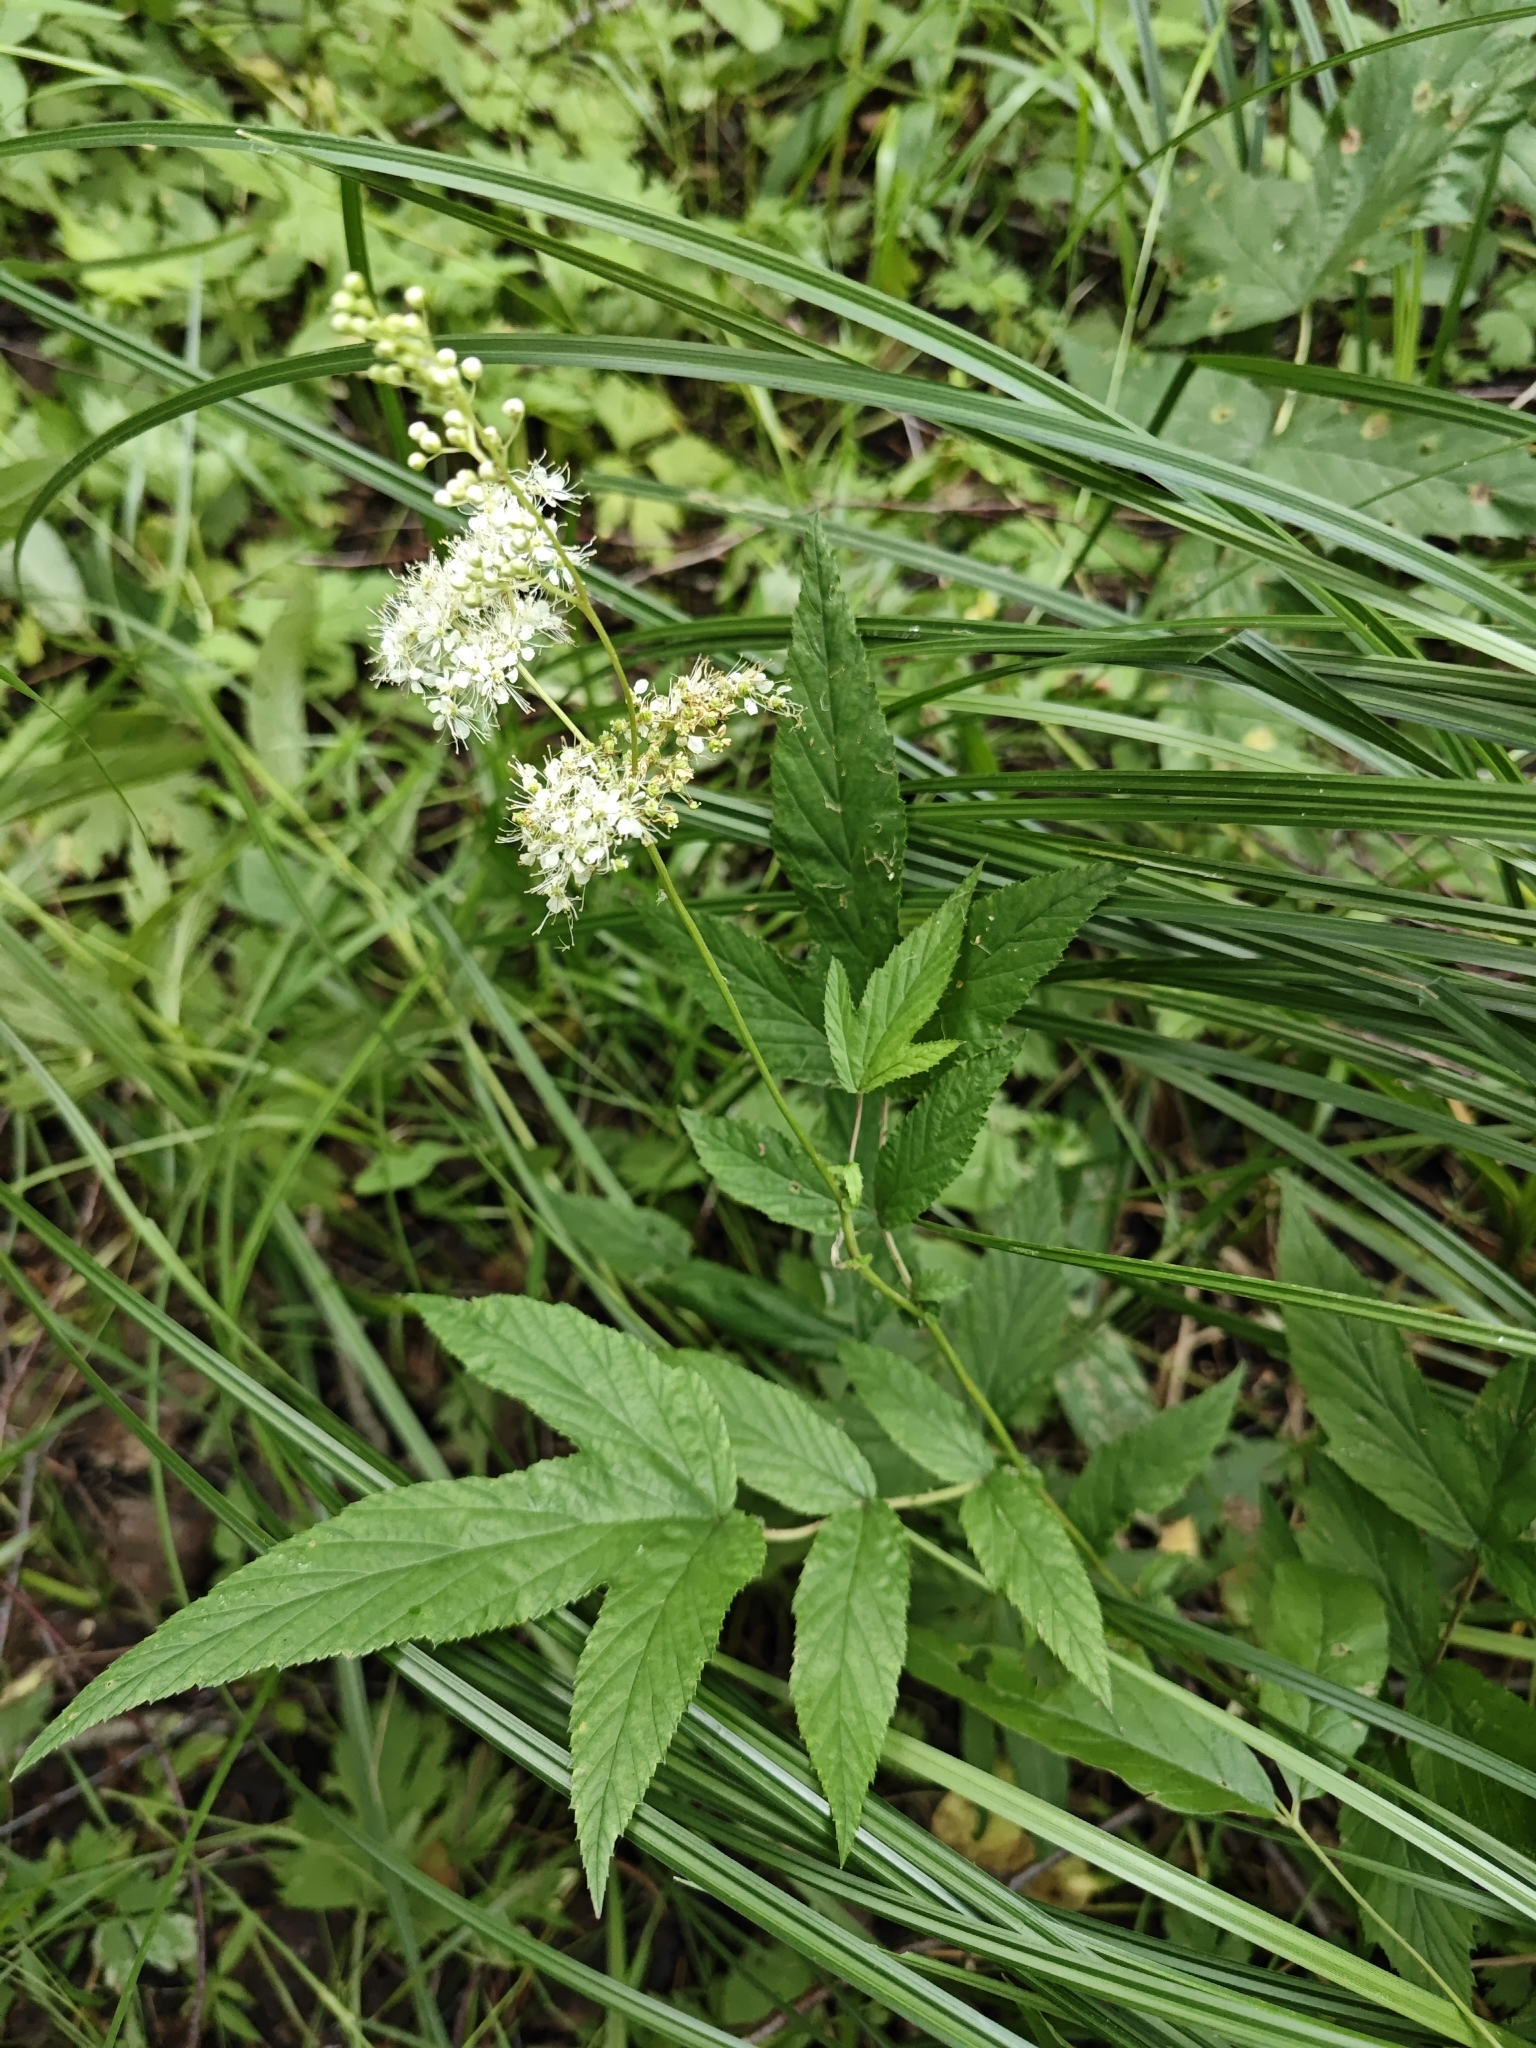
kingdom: Plantae
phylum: Tracheophyta
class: Magnoliopsida
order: Rosales
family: Rosaceae
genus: Filipendula
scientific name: Filipendula ulmaria
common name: Meadowsweet
